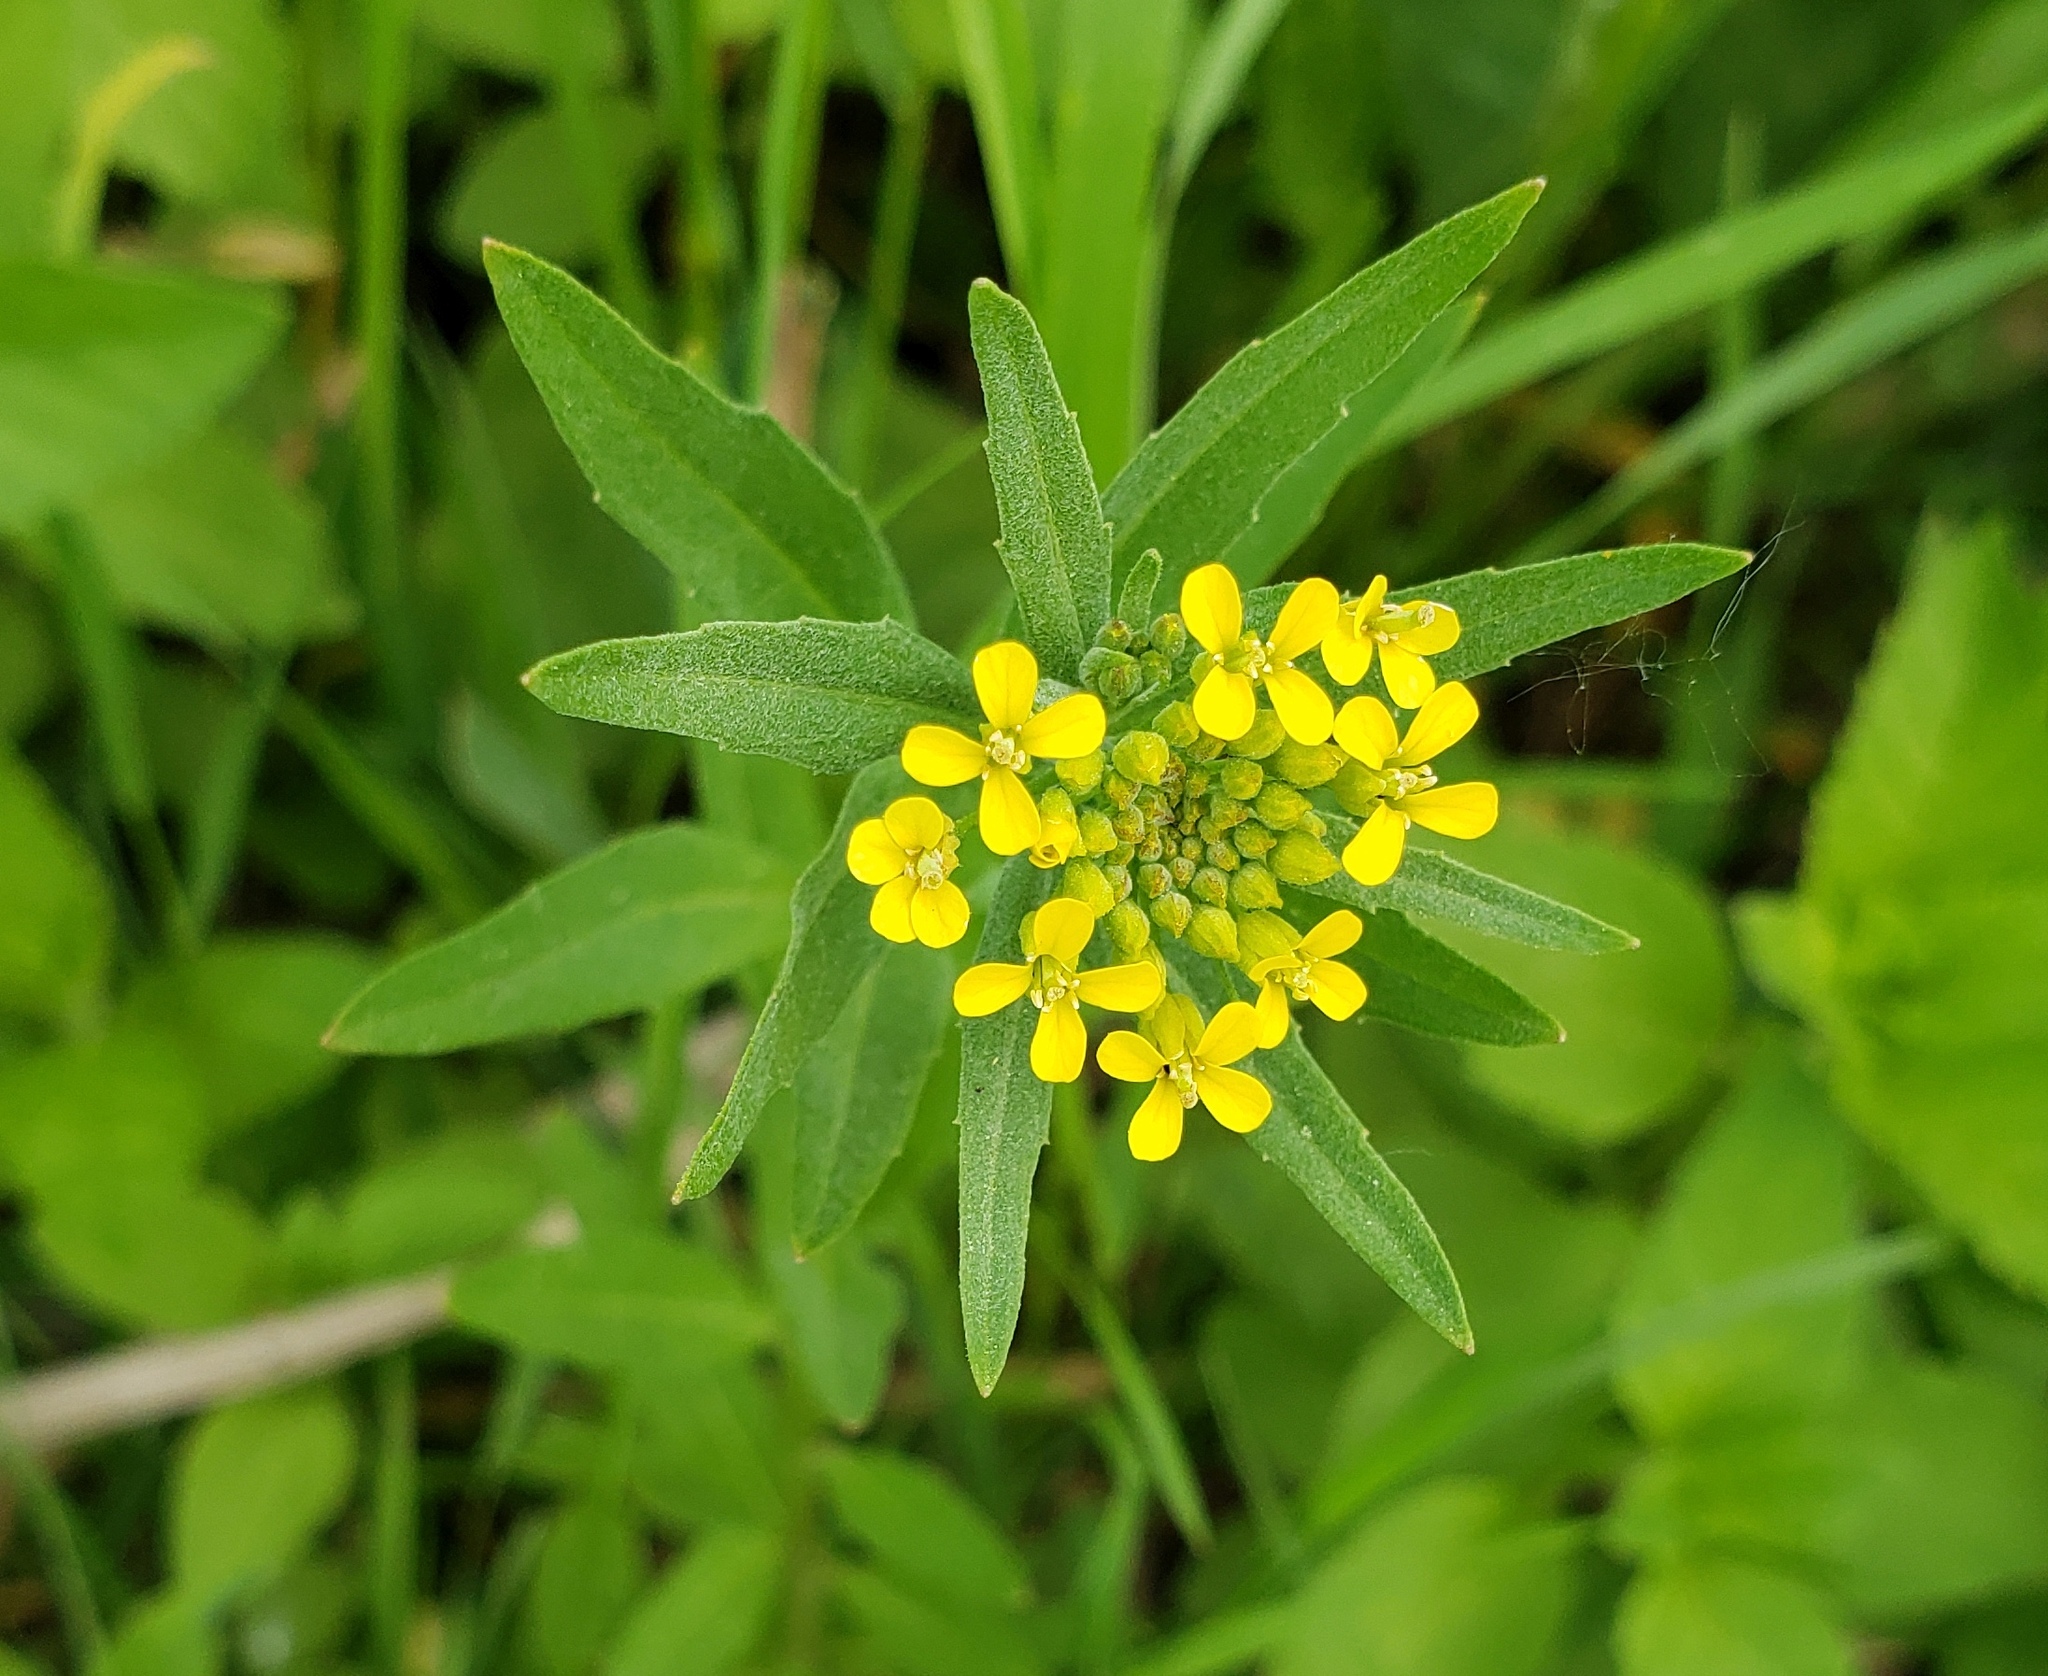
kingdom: Plantae
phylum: Tracheophyta
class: Magnoliopsida
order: Brassicales
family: Brassicaceae
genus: Erysimum
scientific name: Erysimum cheiranthoides
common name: Treacle mustard
